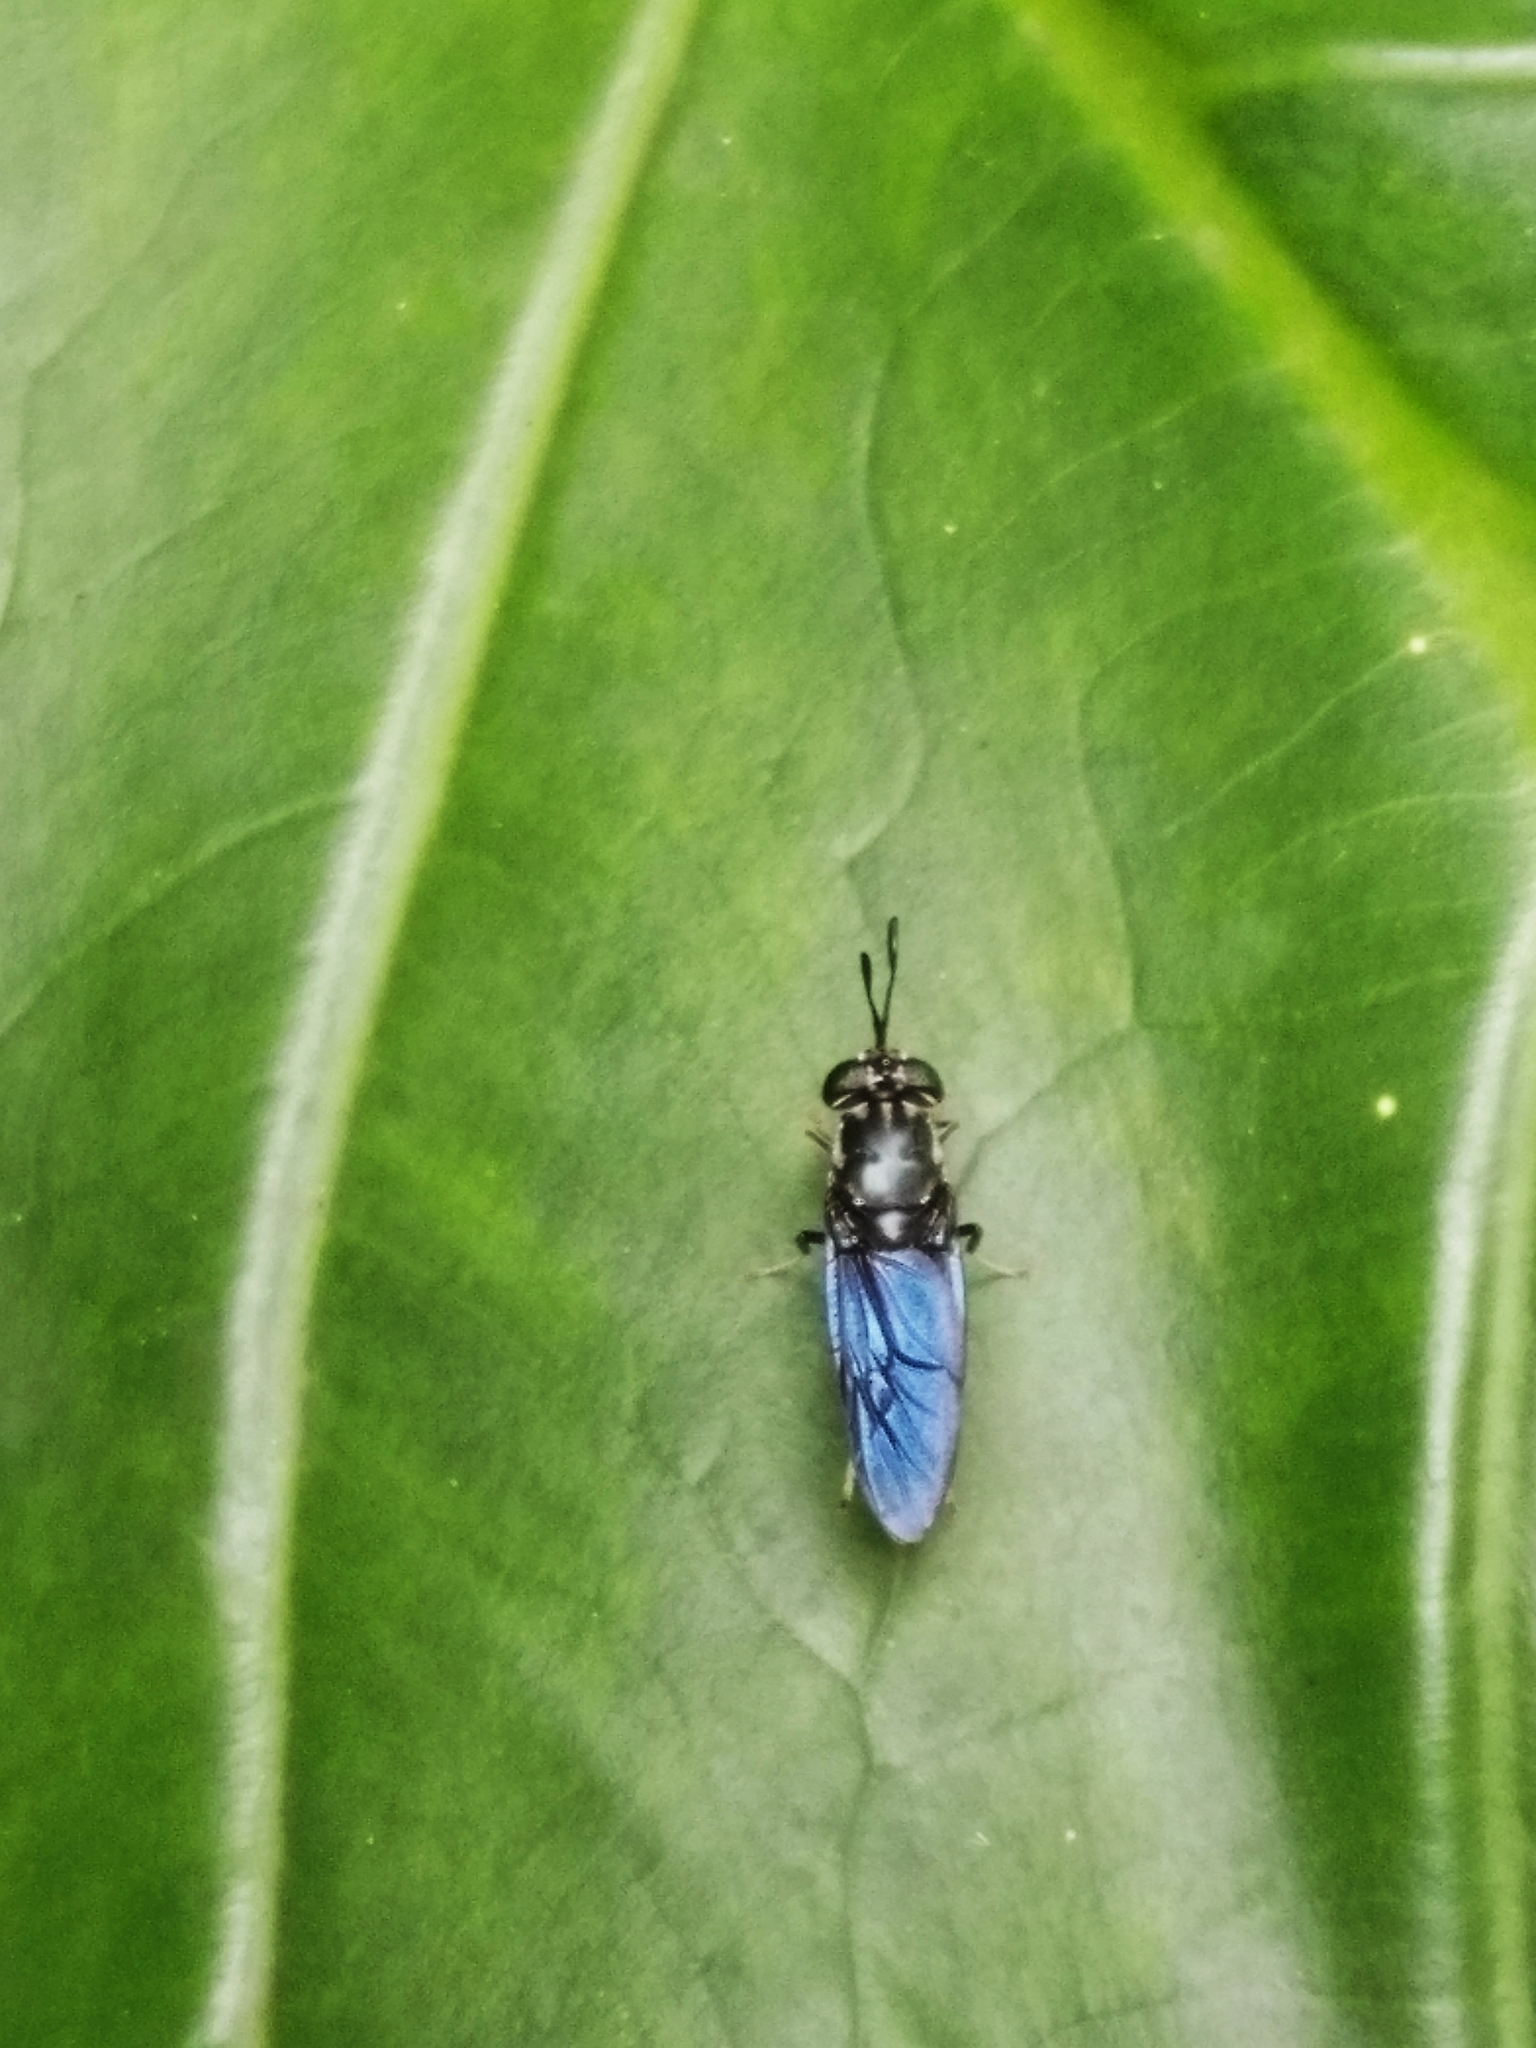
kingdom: Animalia
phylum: Arthropoda
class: Insecta
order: Diptera
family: Stratiomyidae
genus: Hermetia
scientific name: Hermetia illucens
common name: Black soldier fly
